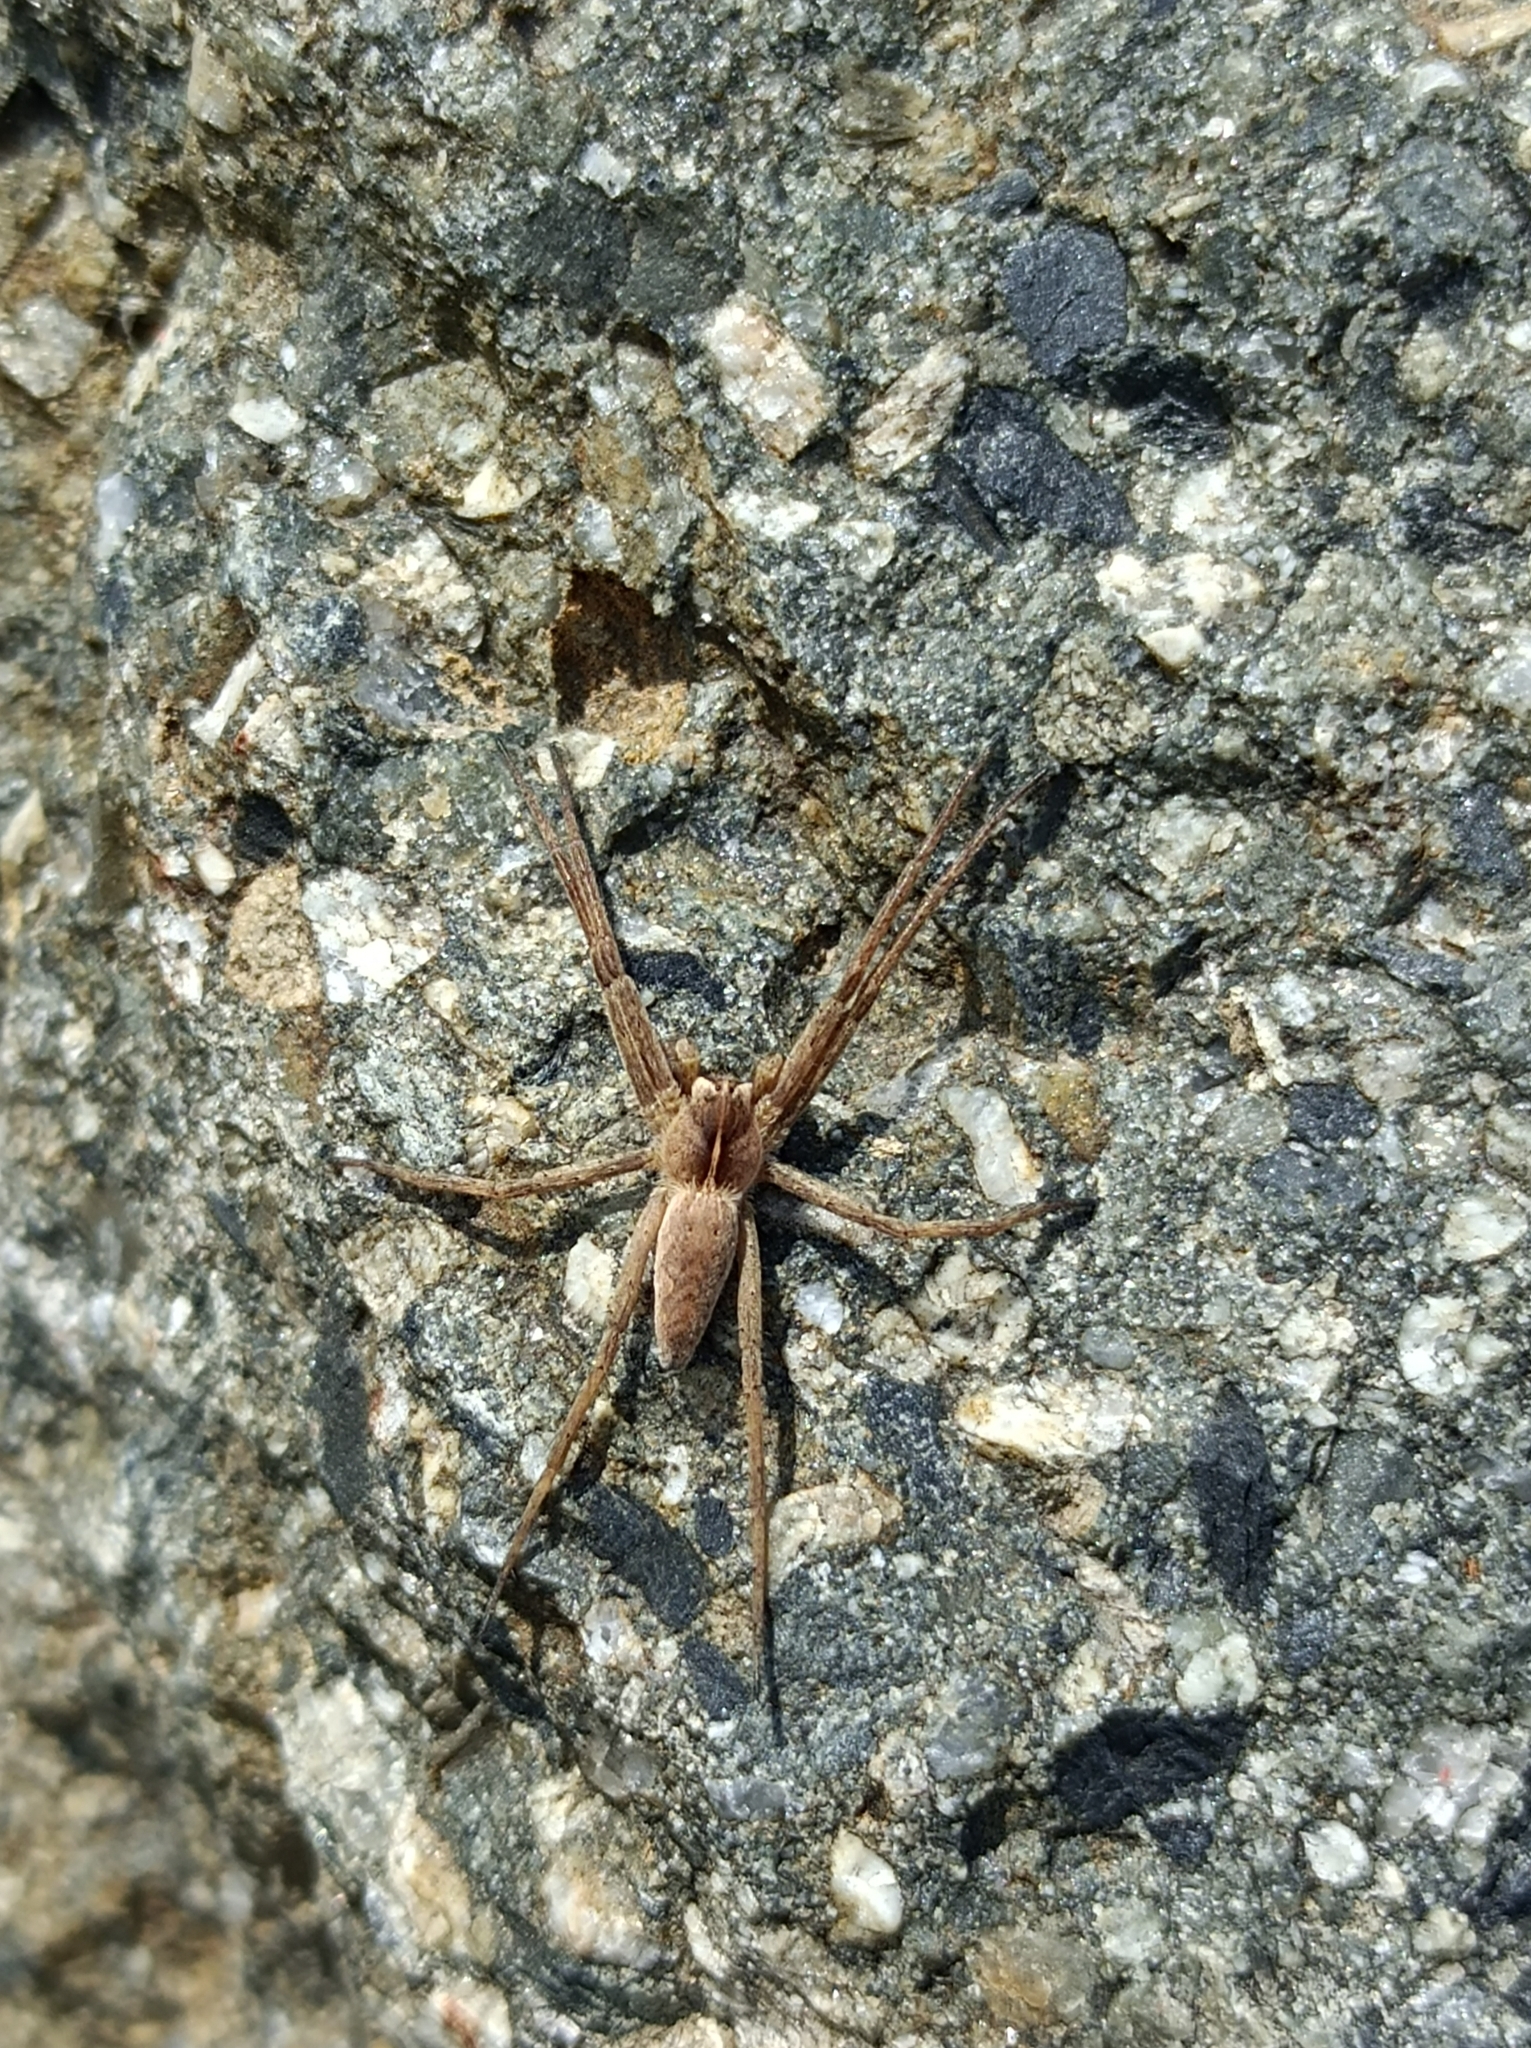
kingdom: Animalia
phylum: Arthropoda
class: Arachnida
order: Araneae
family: Pisauridae
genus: Pisaura
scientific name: Pisaura mirabilis
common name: Tent spider
